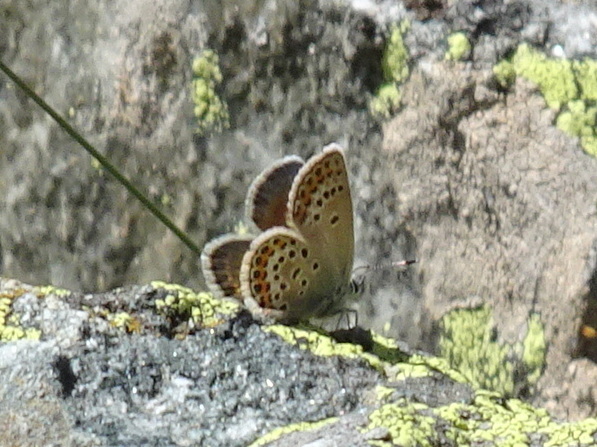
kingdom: Animalia
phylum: Arthropoda
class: Insecta
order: Lepidoptera
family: Lycaenidae
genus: Plebejus
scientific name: Plebejus argus
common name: Silver-studded blue
